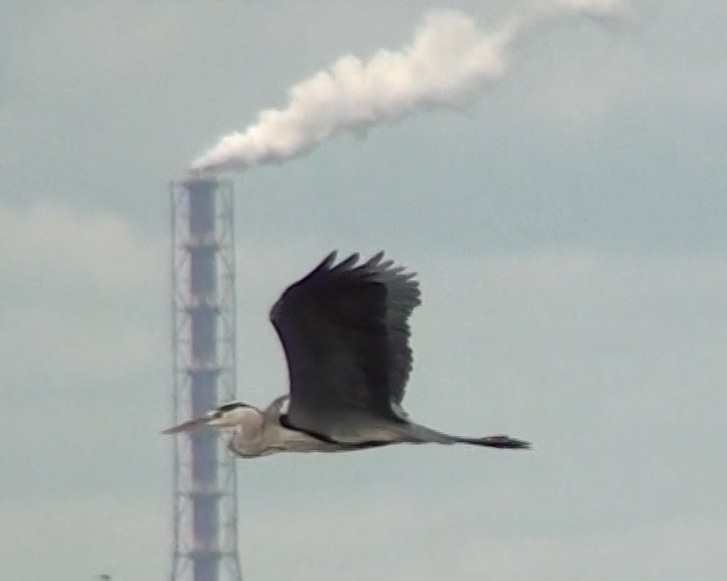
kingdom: Animalia
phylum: Chordata
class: Aves
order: Pelecaniformes
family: Ardeidae
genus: Ardea
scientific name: Ardea cinerea
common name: Grey heron
